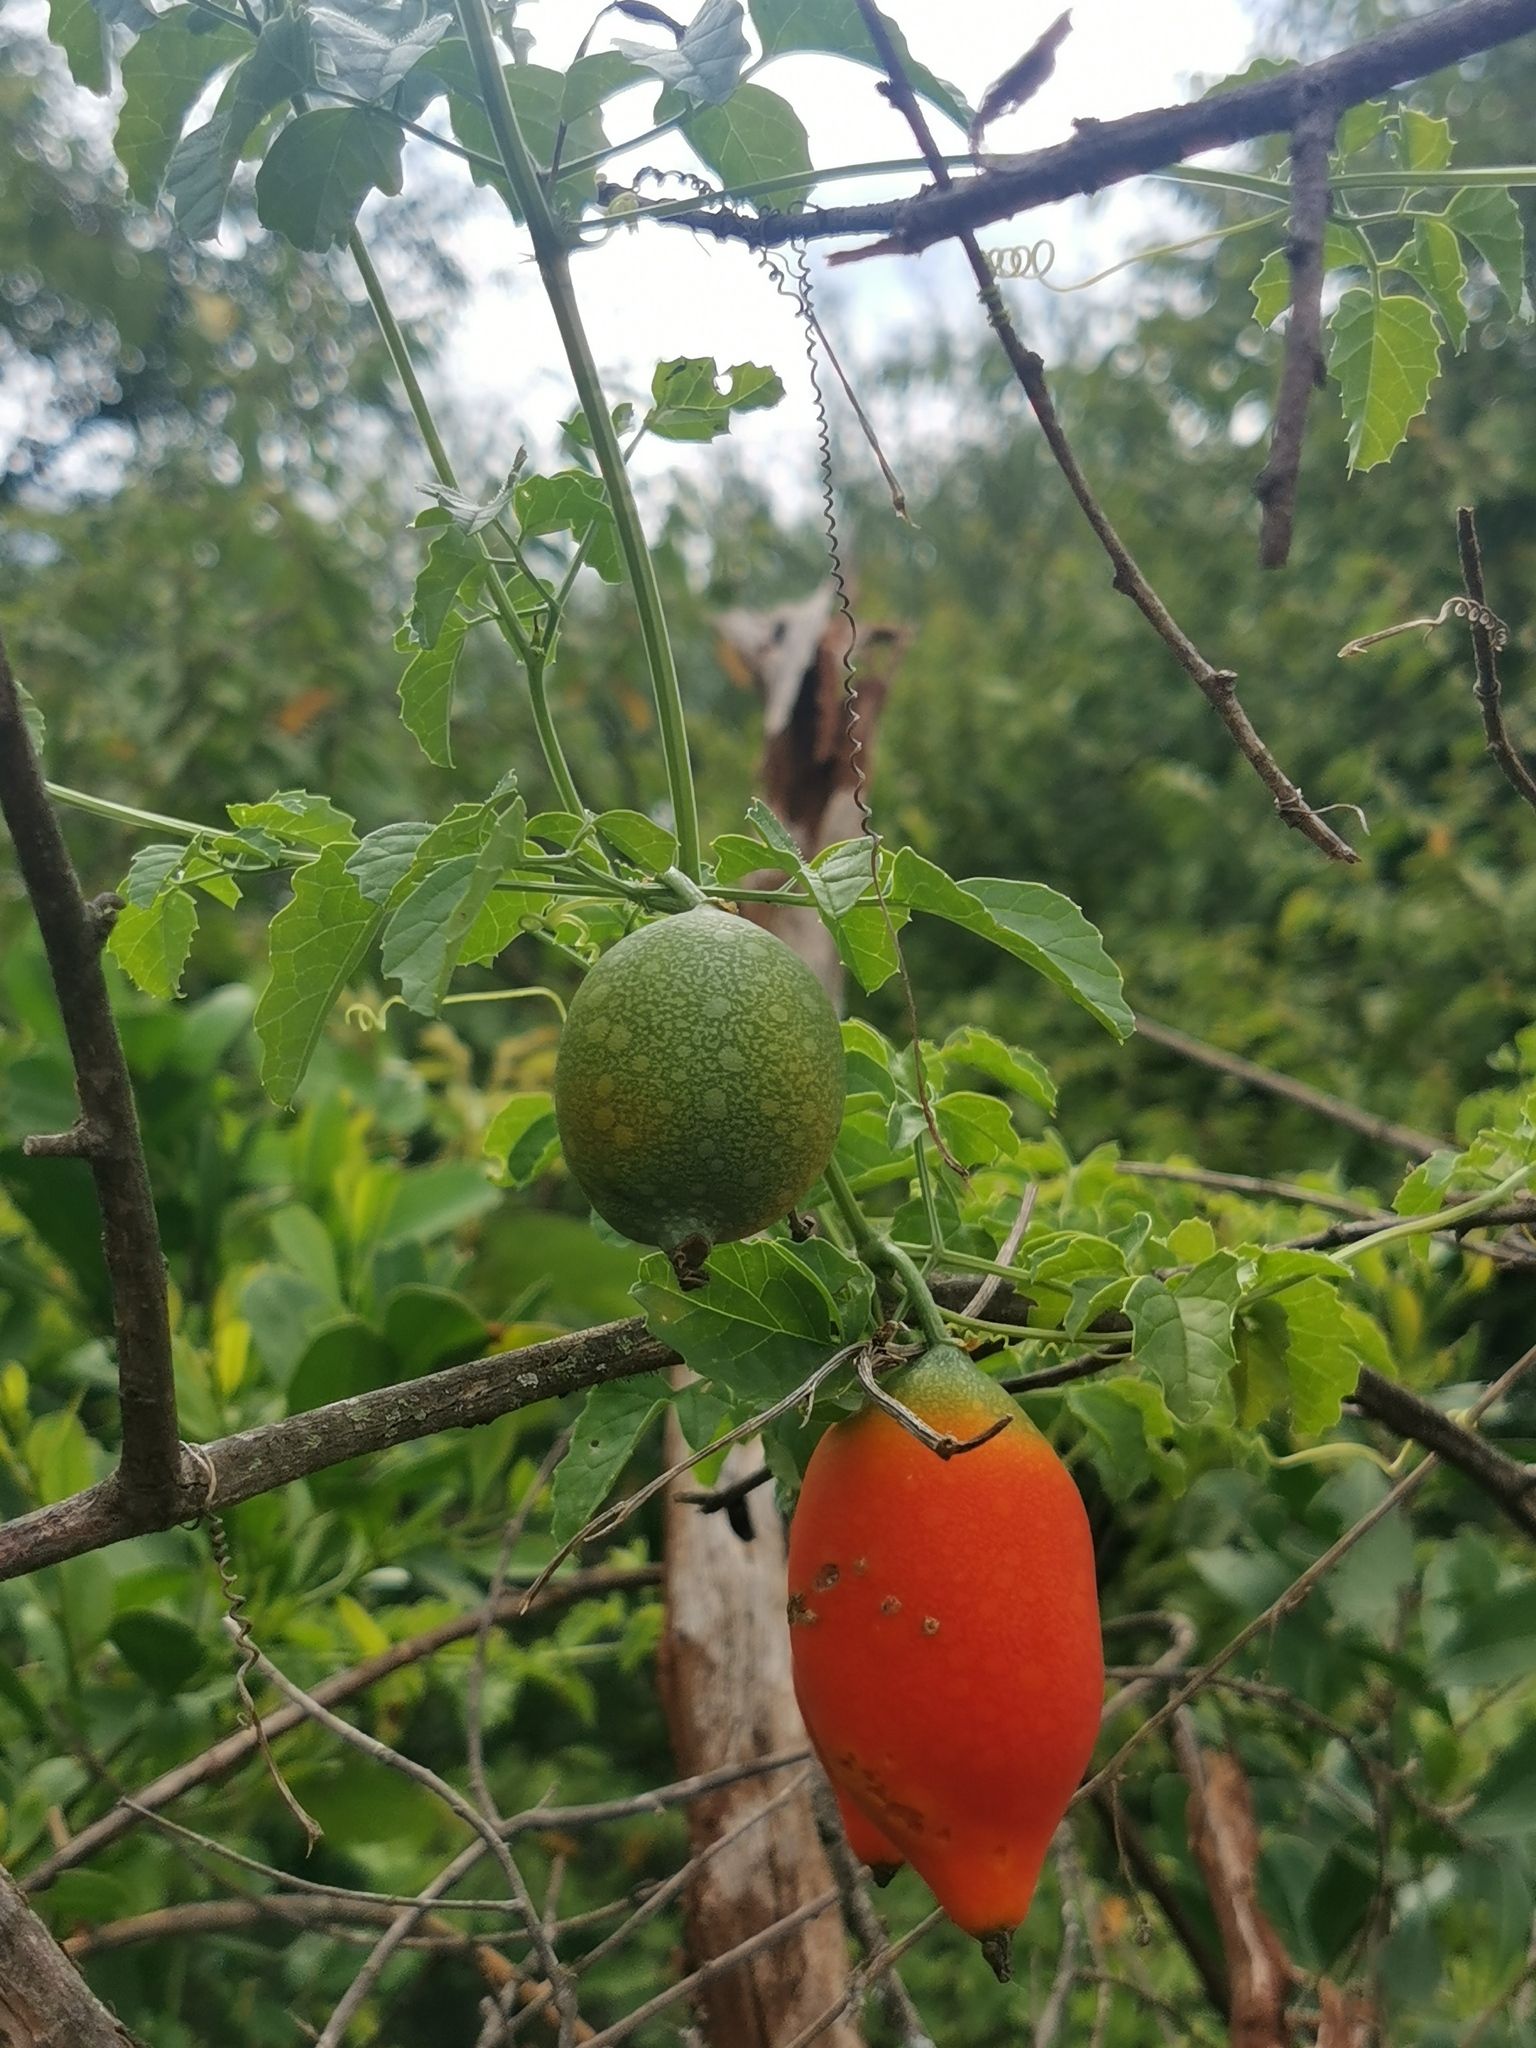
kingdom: Plantae
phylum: Tracheophyta
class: Magnoliopsida
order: Cucurbitales
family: Cucurbitaceae
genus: Momordica
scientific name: Momordica cardiospermoides
